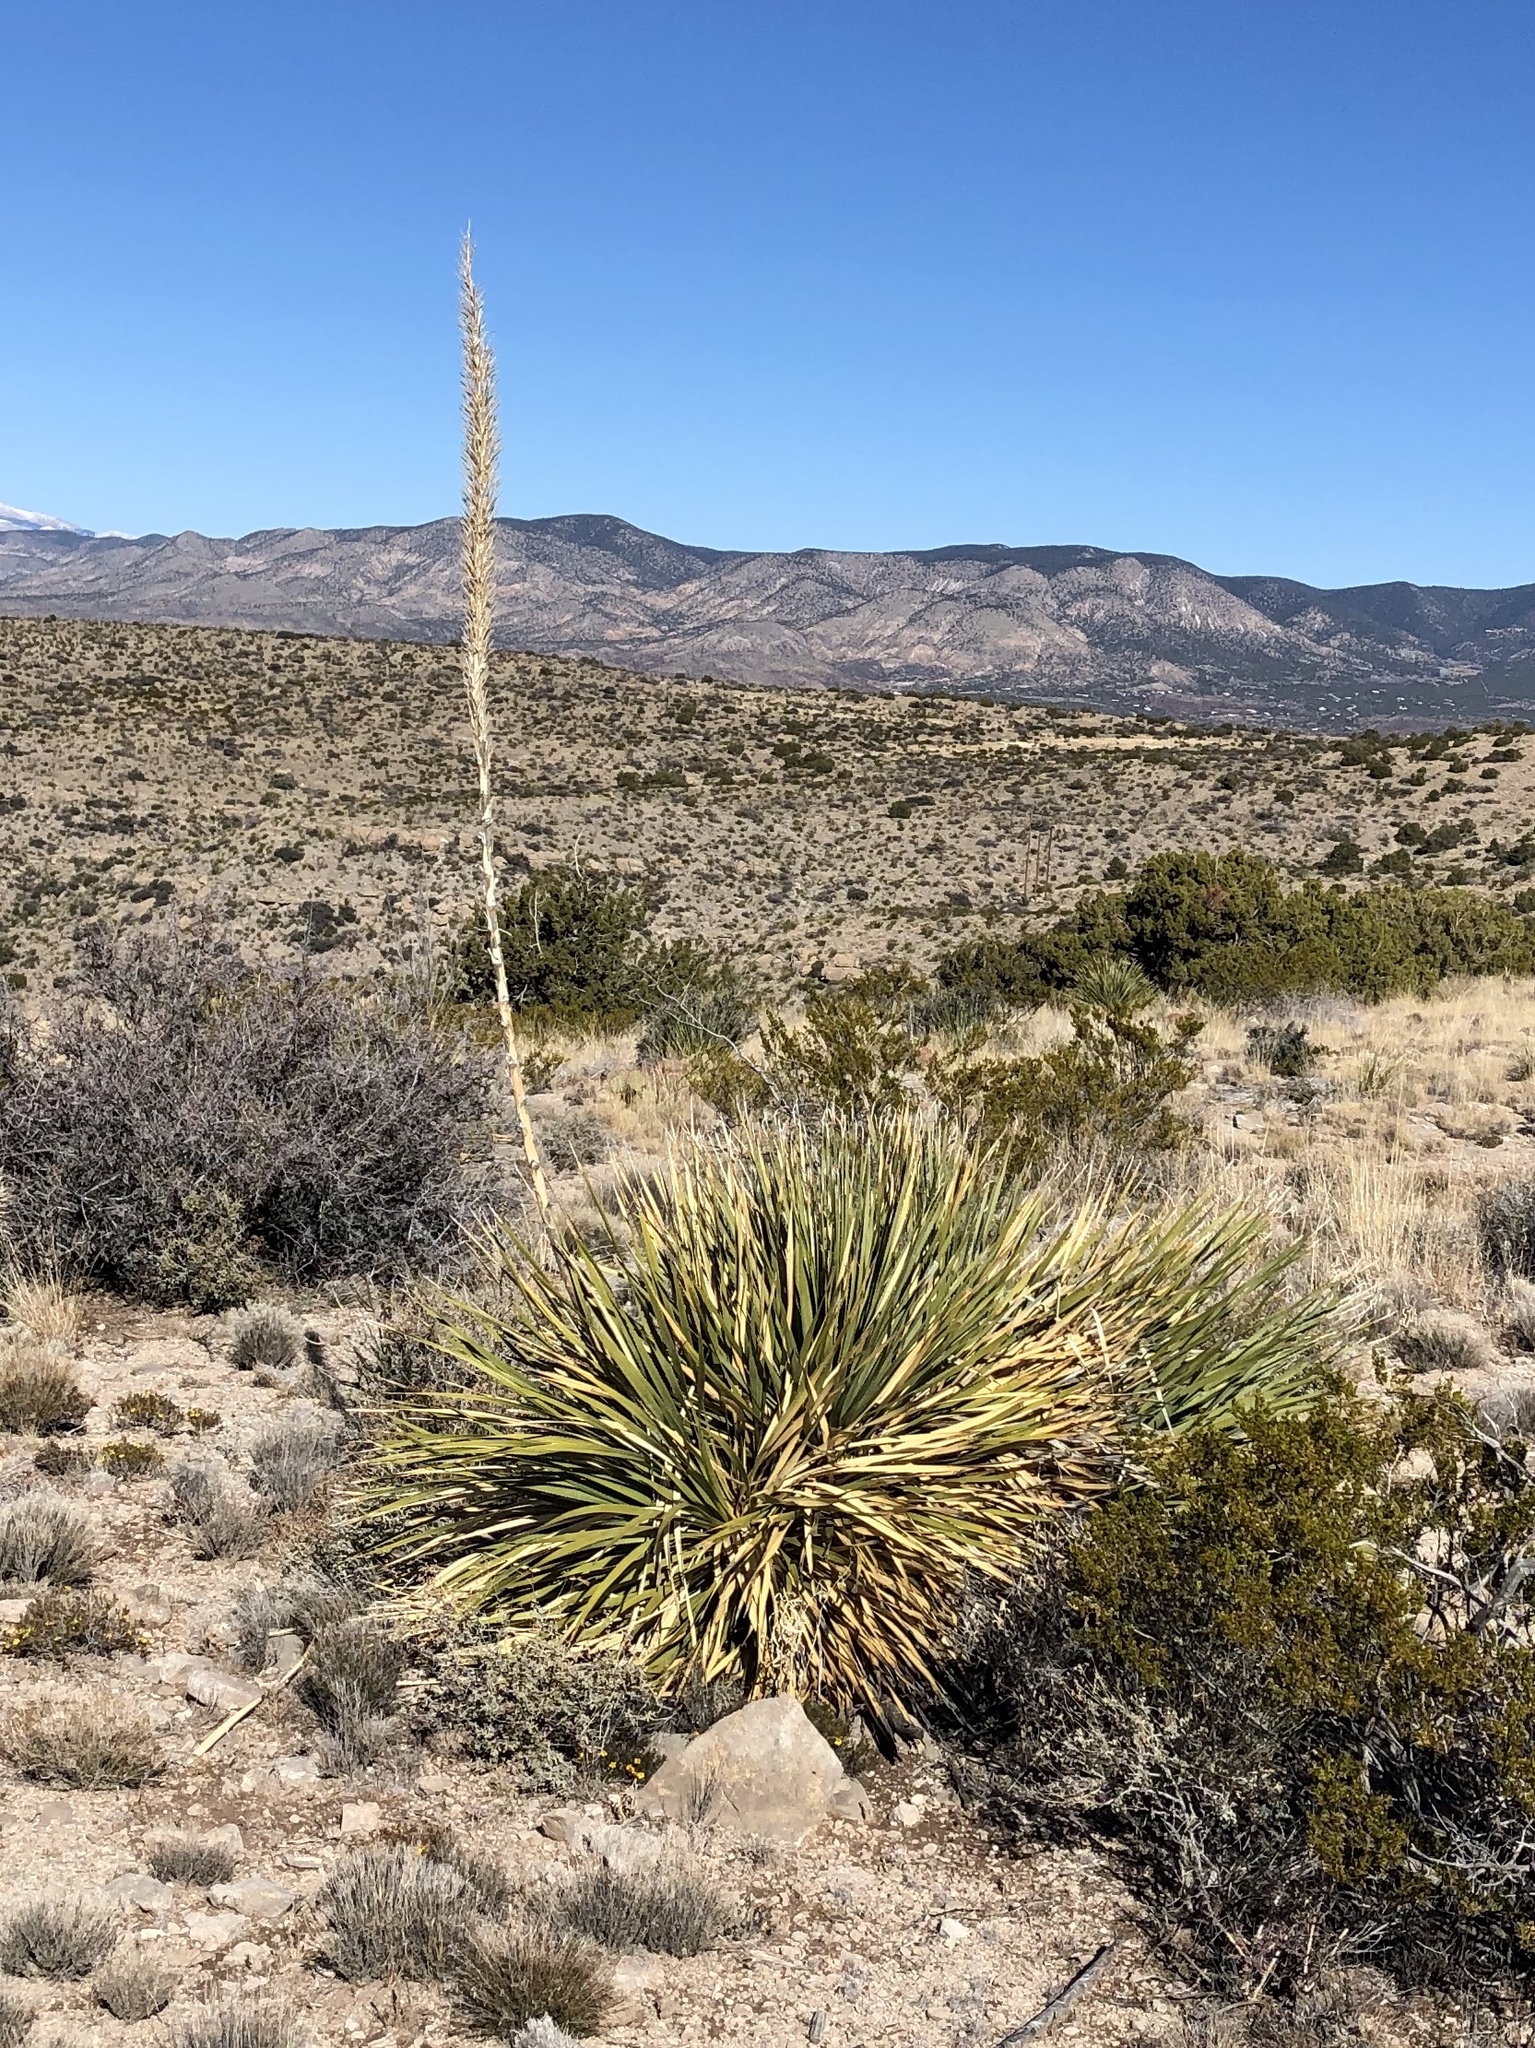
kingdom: Plantae
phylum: Tracheophyta
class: Liliopsida
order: Asparagales
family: Asparagaceae
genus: Dasylirion
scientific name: Dasylirion wheeleri
